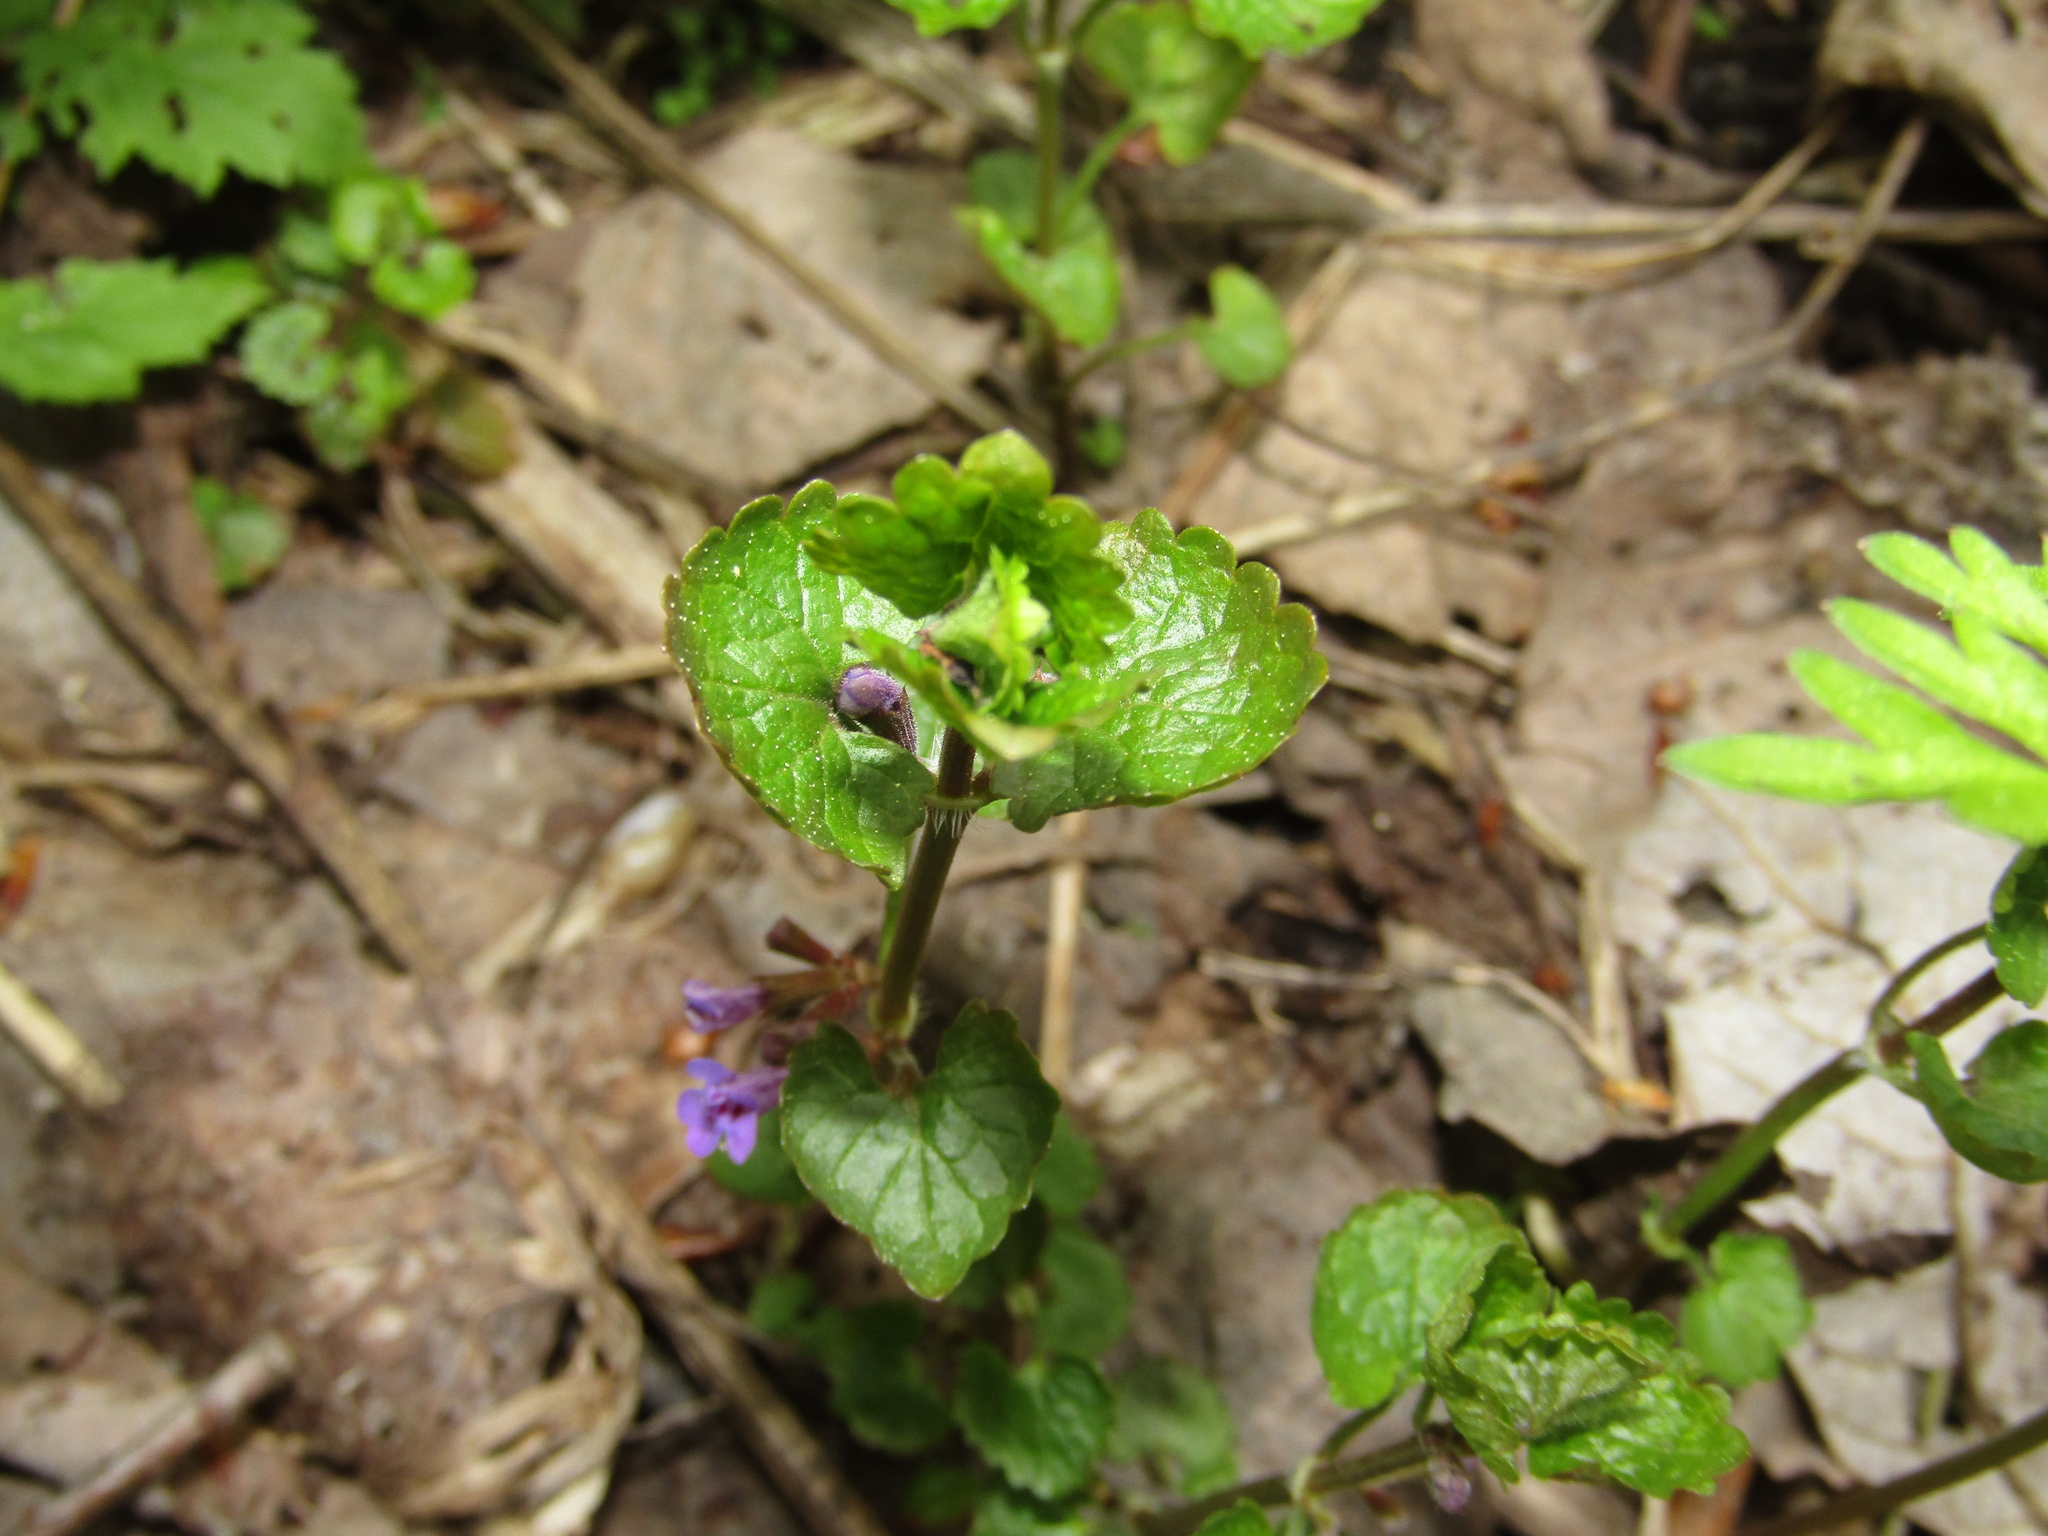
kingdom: Plantae
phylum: Tracheophyta
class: Magnoliopsida
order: Lamiales
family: Lamiaceae
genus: Glechoma
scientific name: Glechoma hederacea
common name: Ground ivy
